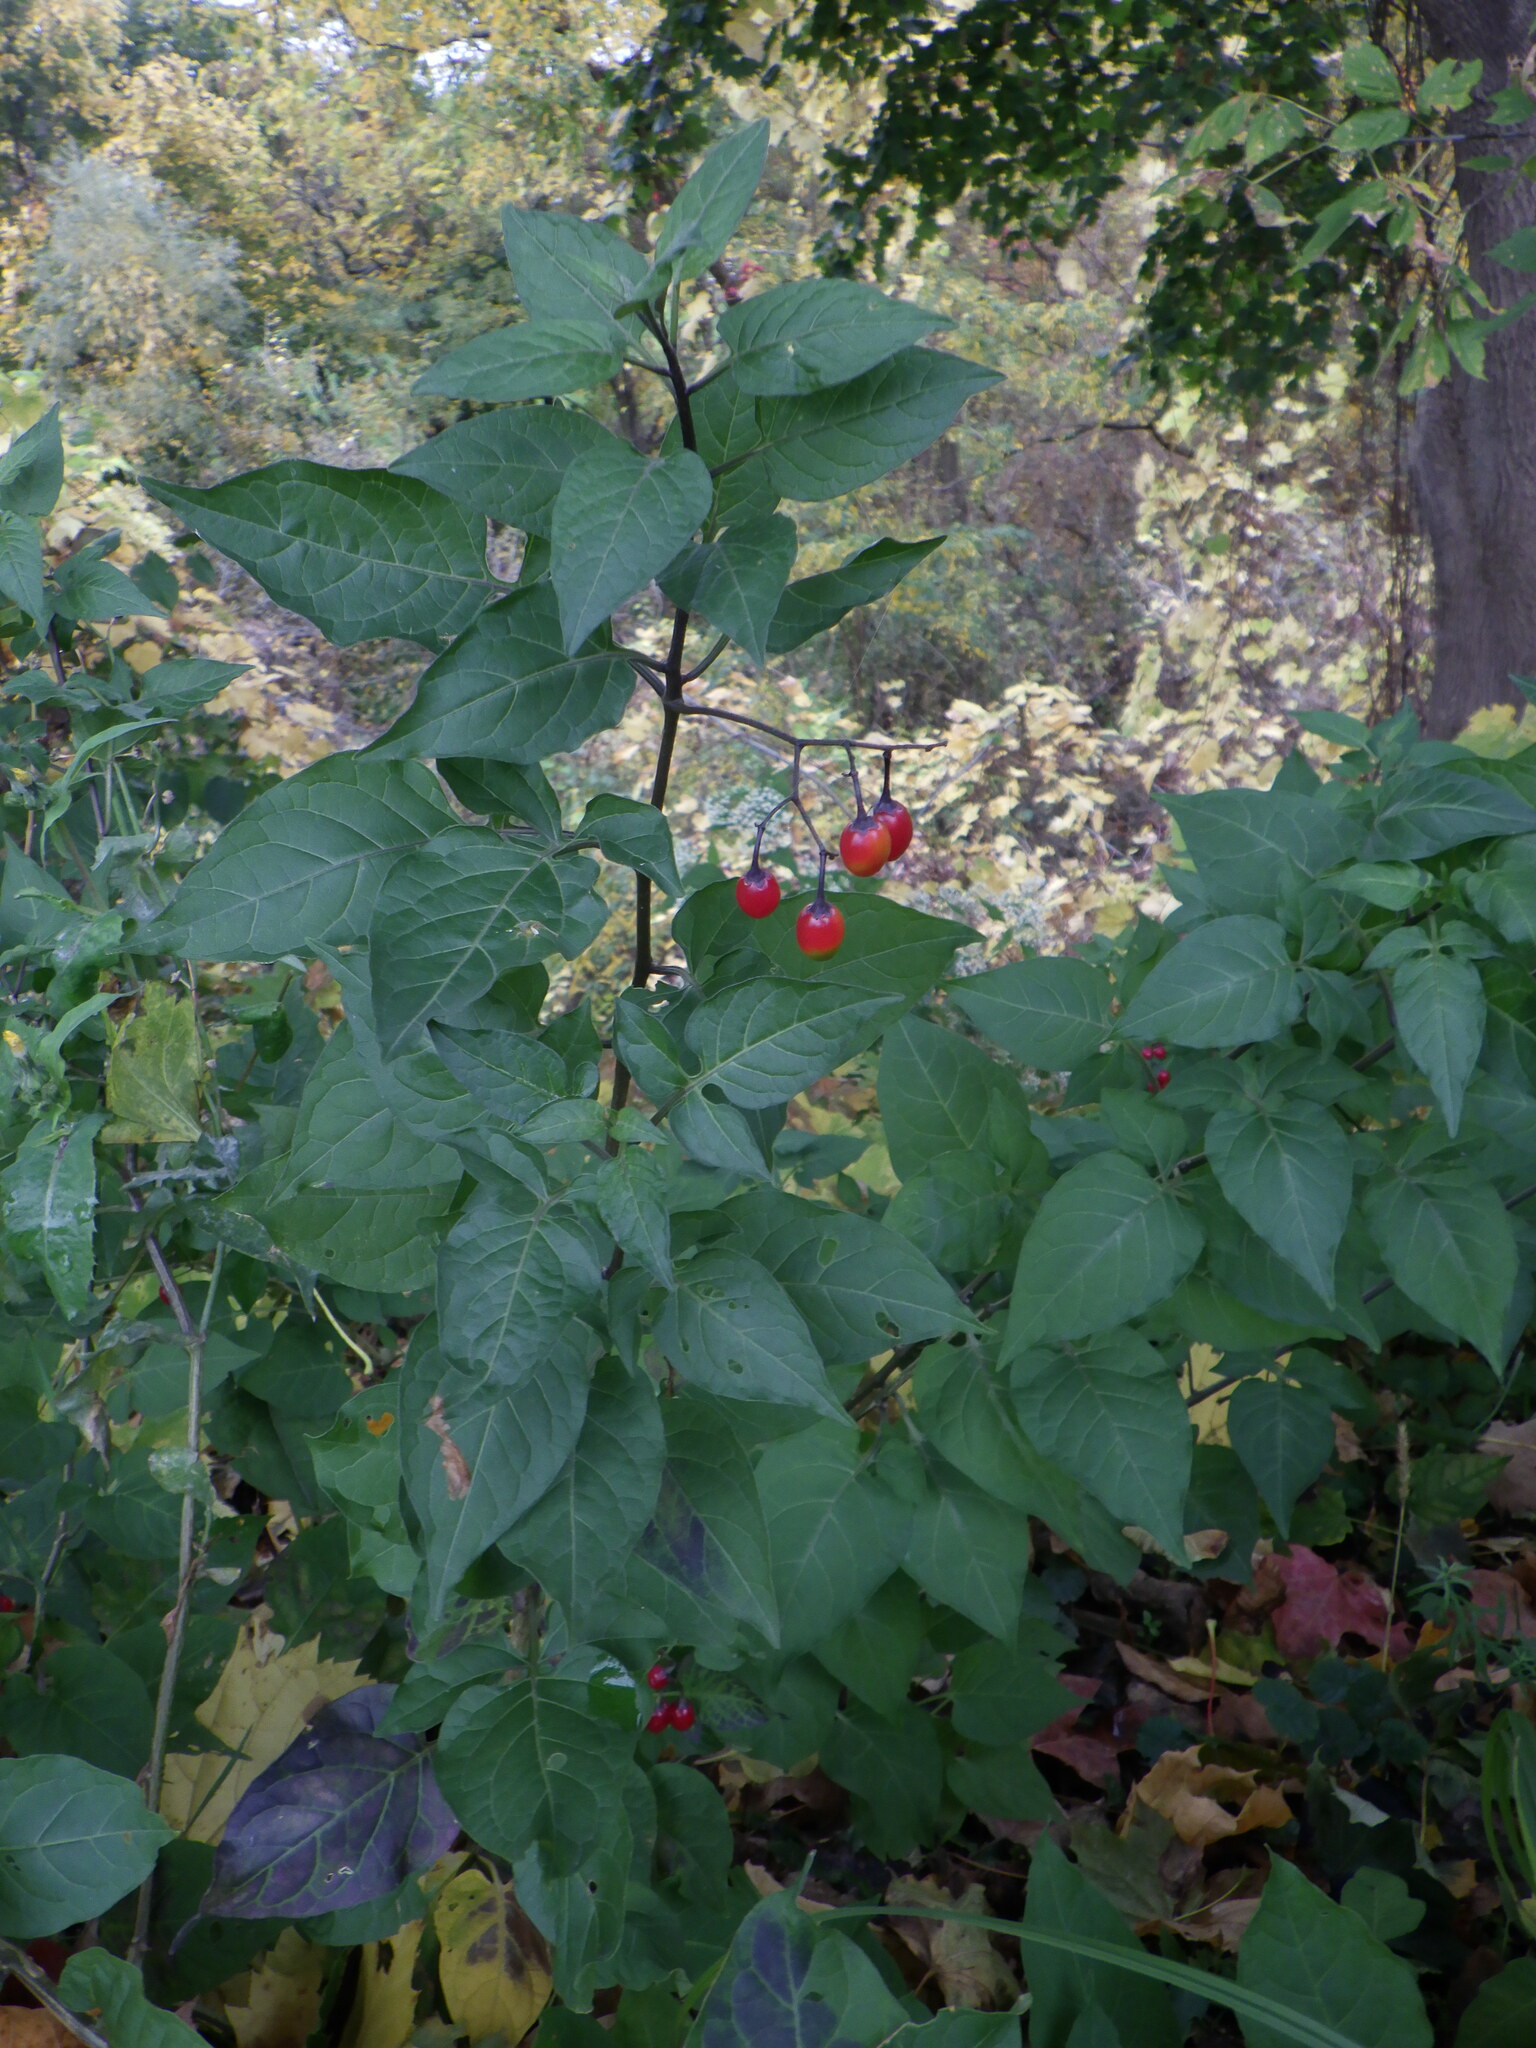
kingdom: Plantae
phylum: Tracheophyta
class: Magnoliopsida
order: Solanales
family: Solanaceae
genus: Solanum
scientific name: Solanum dulcamara
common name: Climbing nightshade
